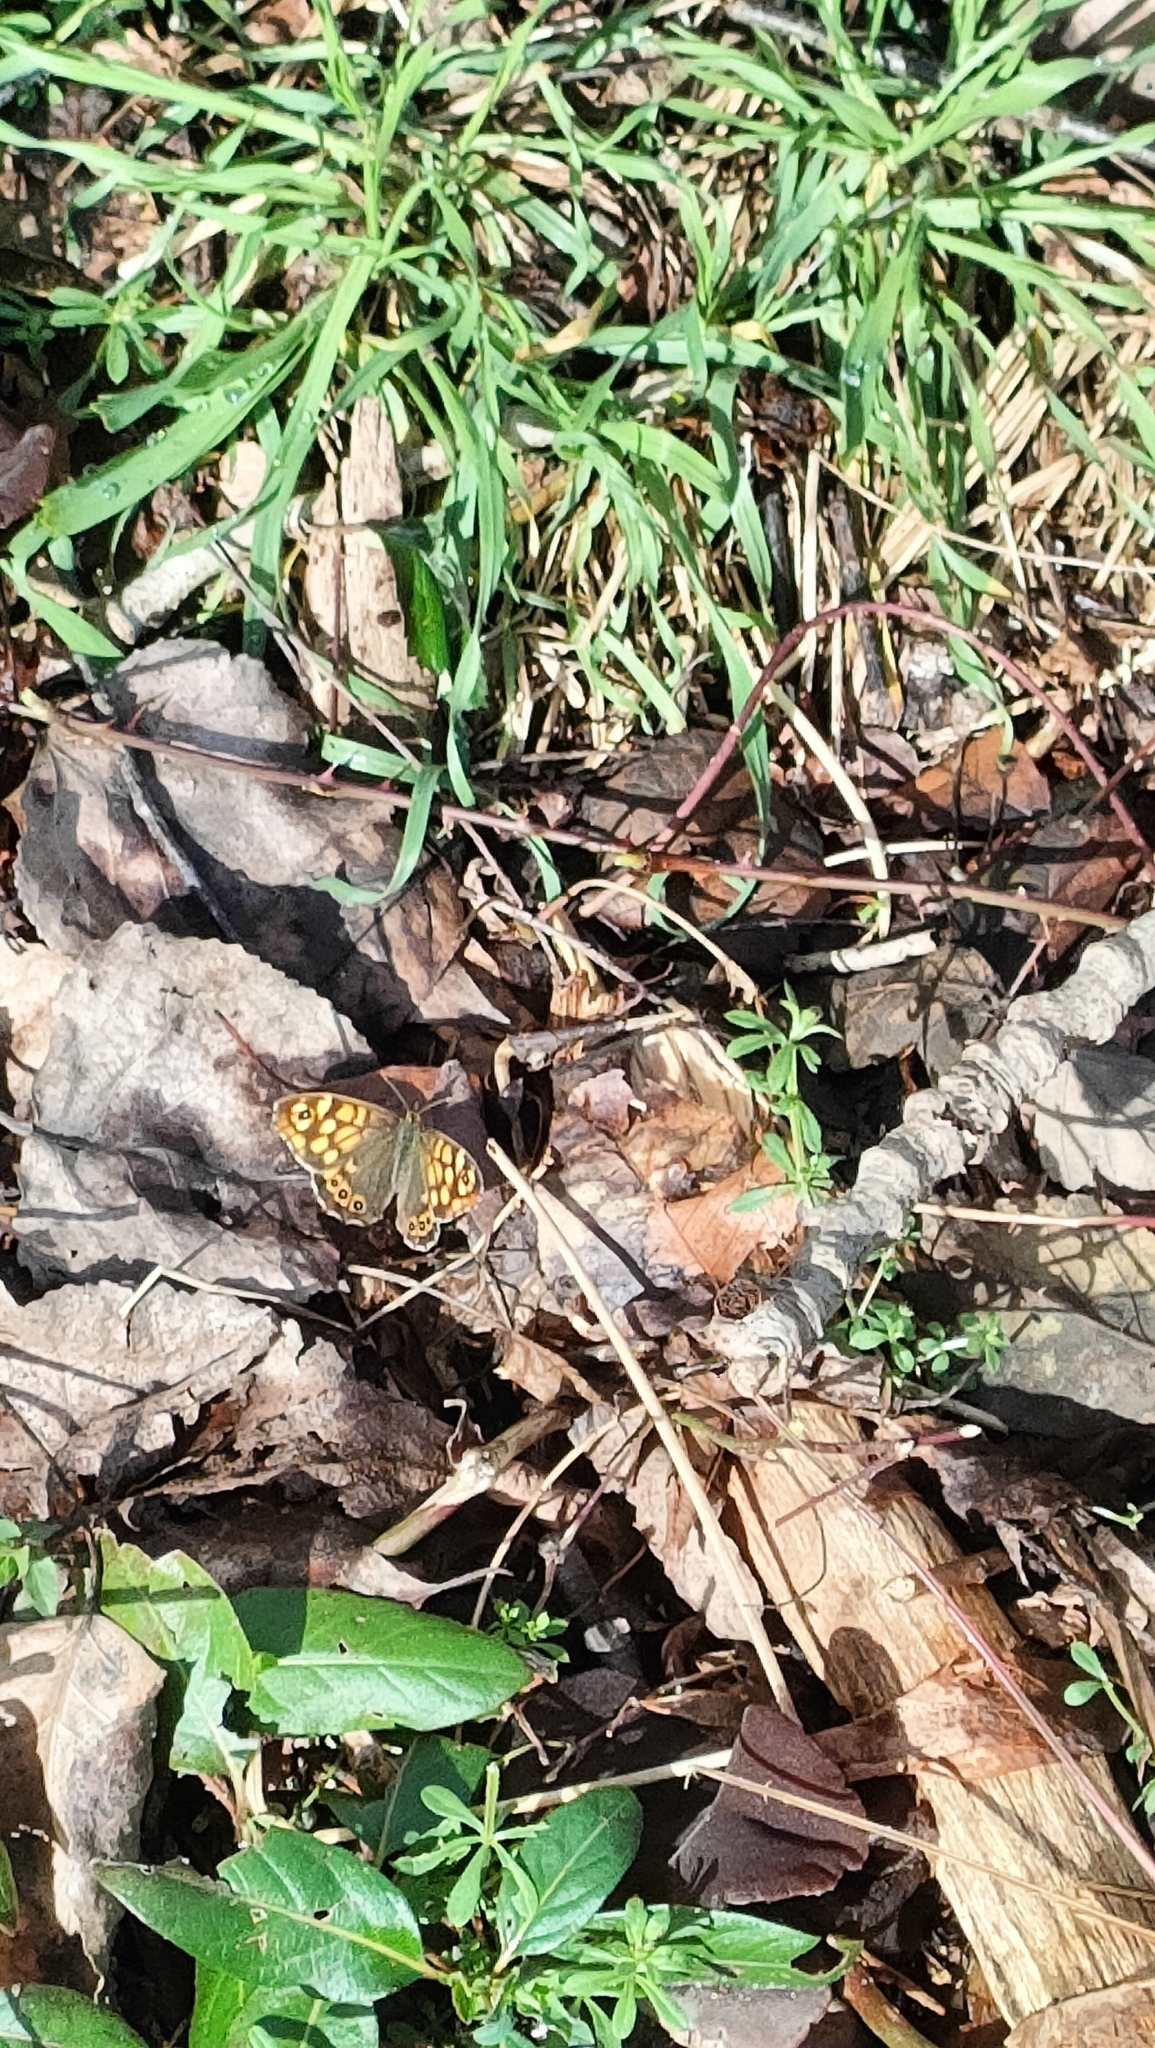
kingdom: Animalia
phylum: Arthropoda
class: Insecta
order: Lepidoptera
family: Nymphalidae
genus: Pararge
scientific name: Pararge aegeria
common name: Speckled wood
